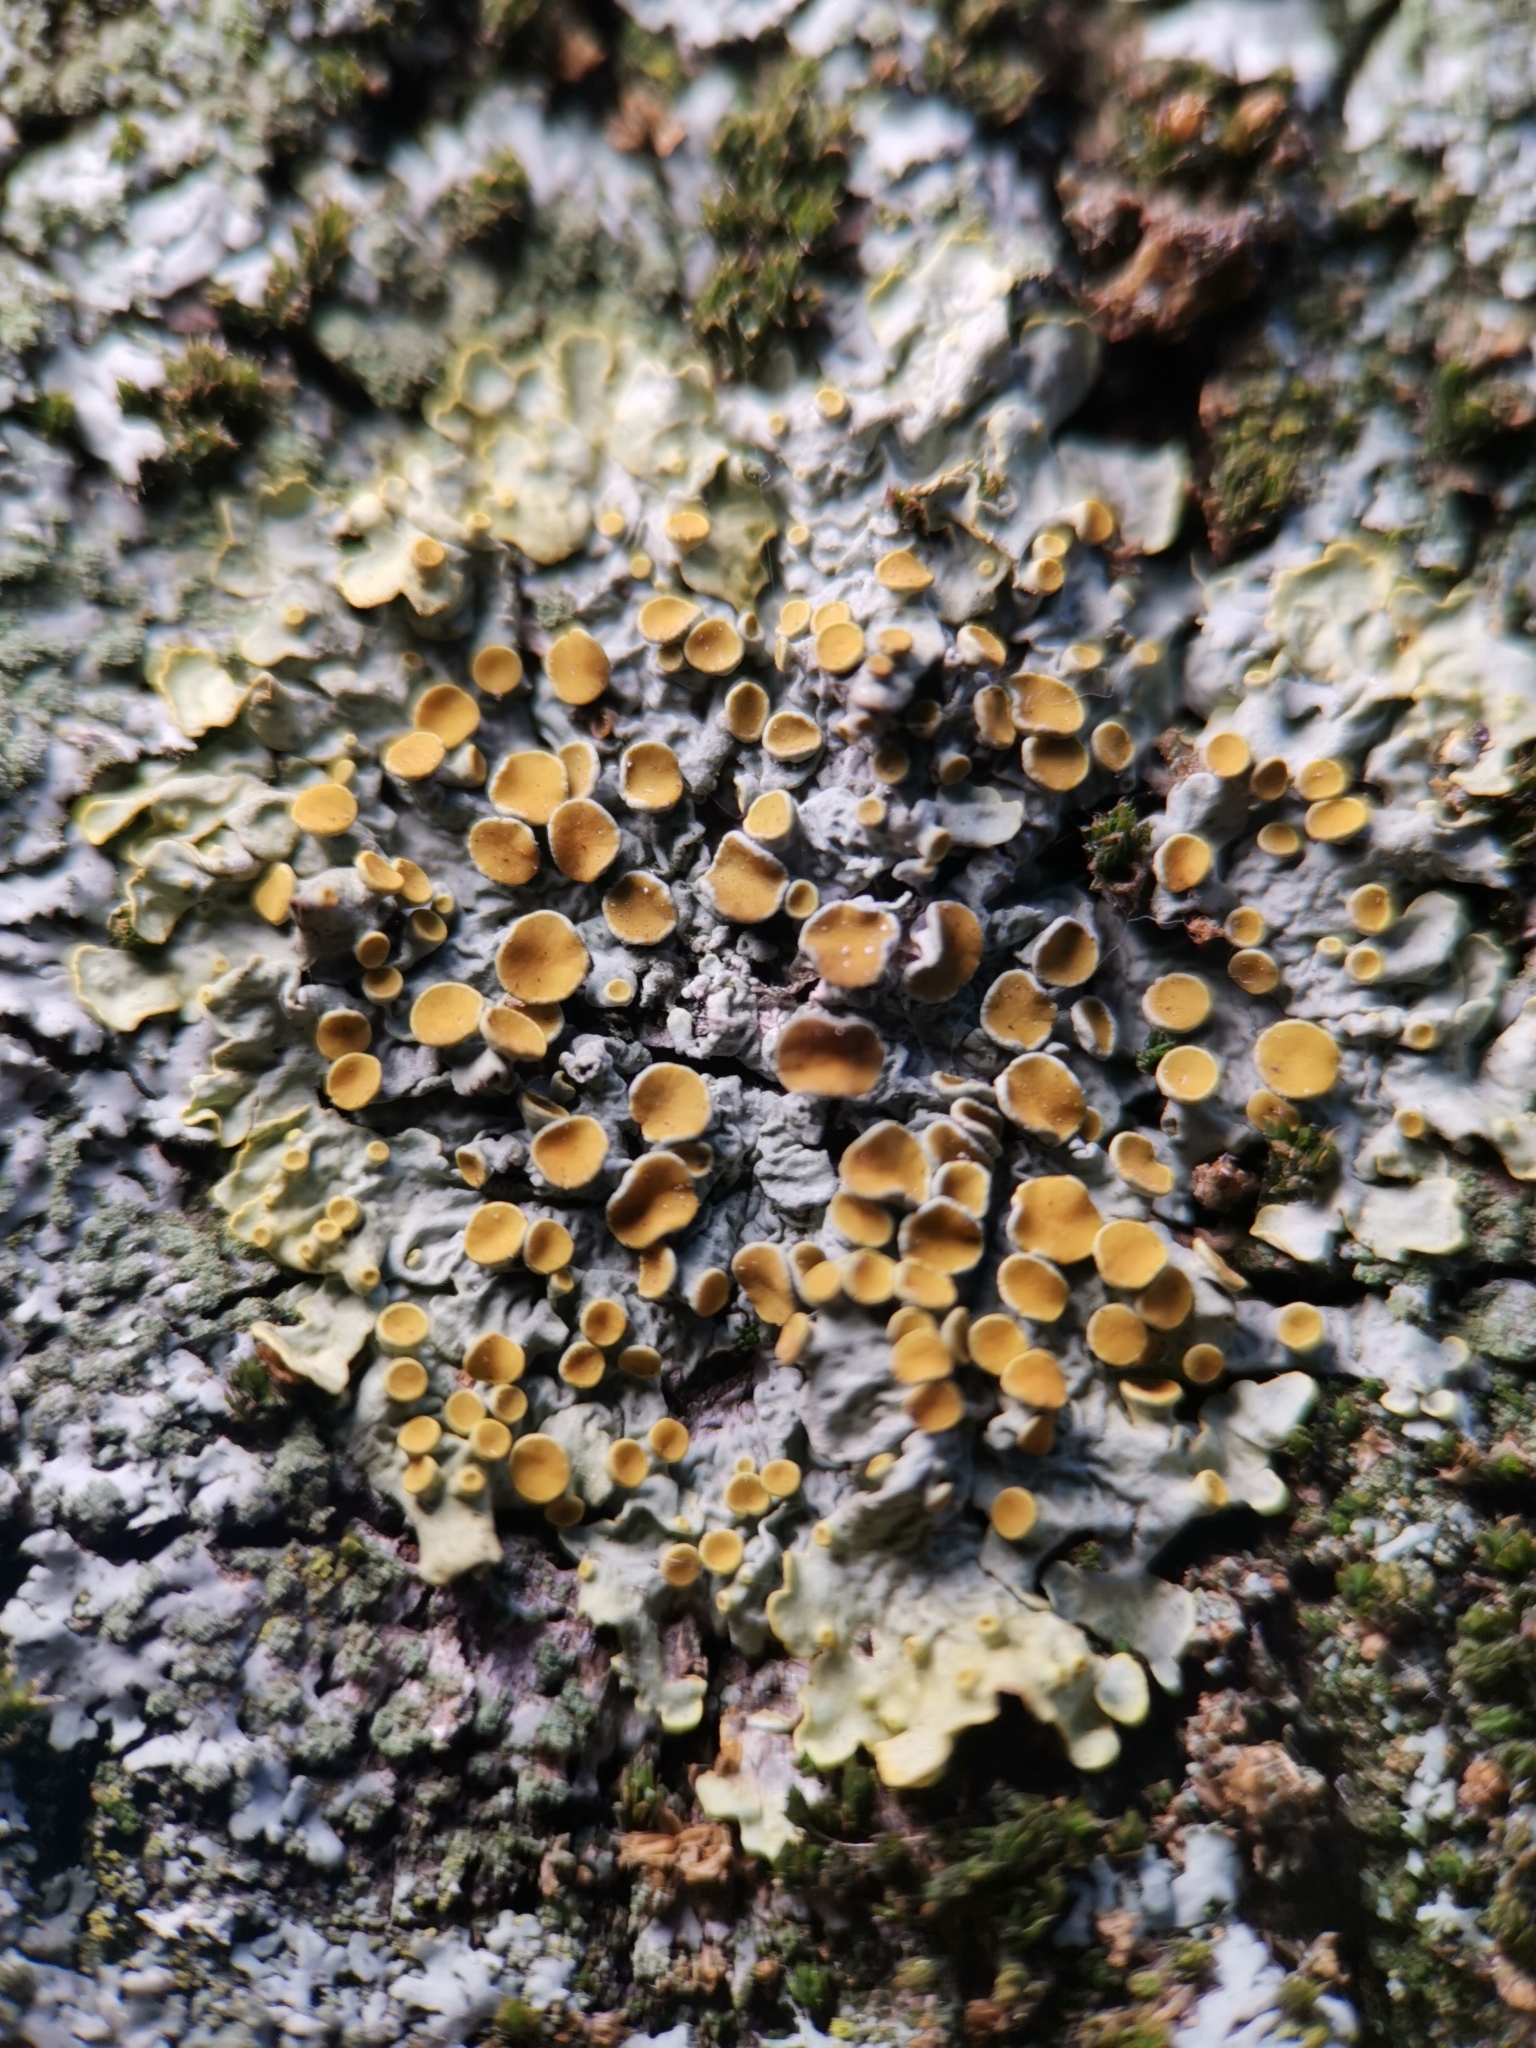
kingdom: Fungi
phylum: Ascomycota
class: Lecanoromycetes
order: Teloschistales
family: Teloschistaceae
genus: Xanthoria
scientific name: Xanthoria parietina
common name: Common orange lichen
